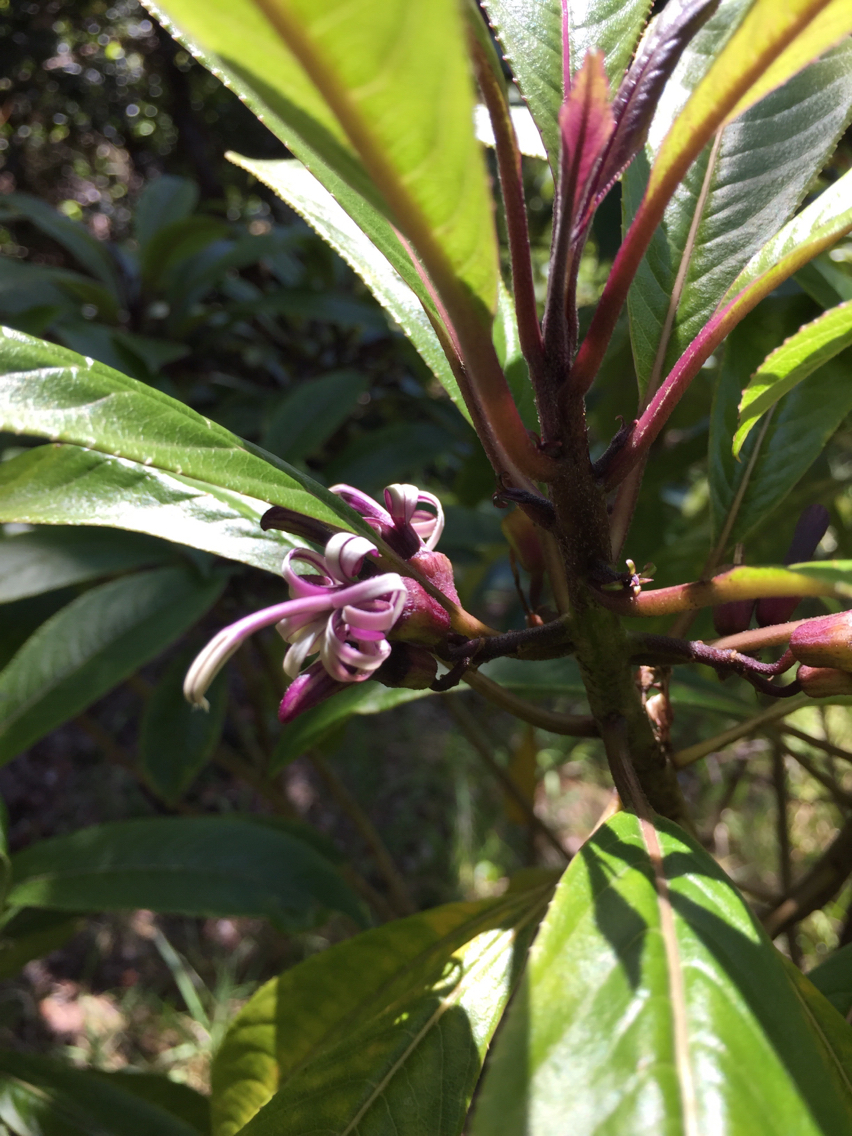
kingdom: Plantae
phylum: Tracheophyta
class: Magnoliopsida
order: Asterales
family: Campanulaceae
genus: Clermontia
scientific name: Clermontia parviflora
